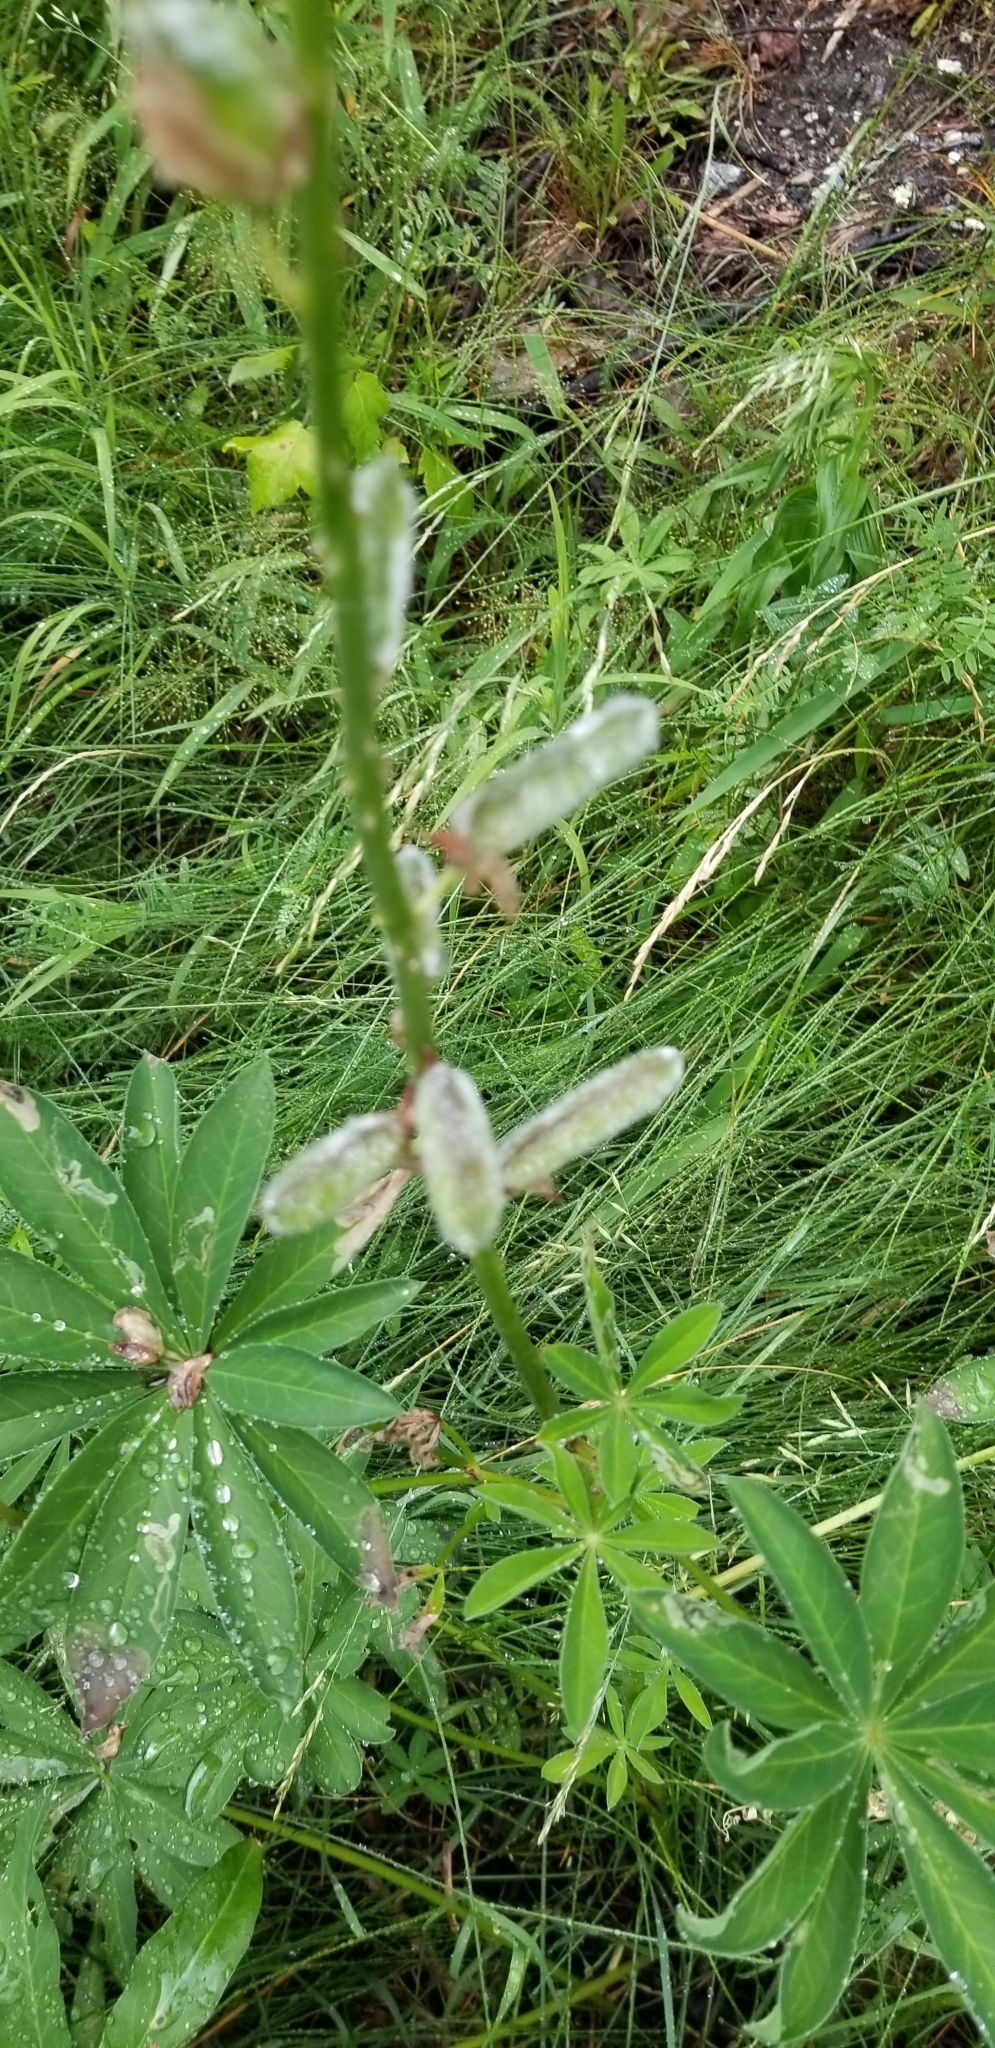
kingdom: Plantae
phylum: Tracheophyta
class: Magnoliopsida
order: Fabales
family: Fabaceae
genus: Lupinus
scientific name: Lupinus polyphyllus
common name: Garden lupin
